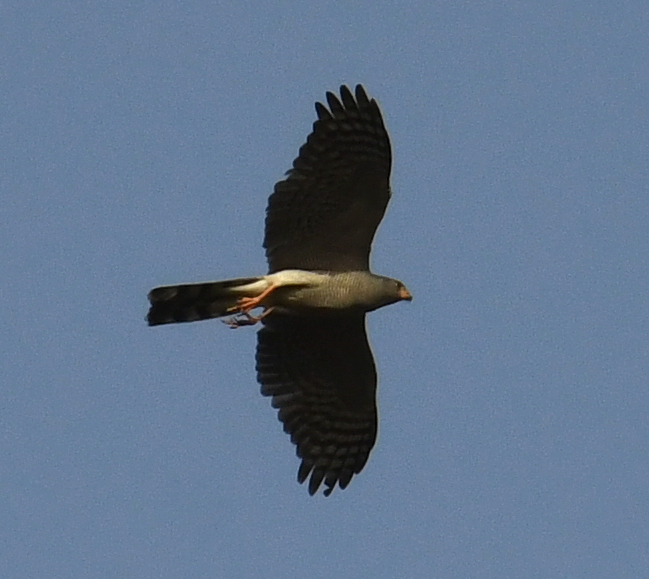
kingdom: Animalia
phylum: Chordata
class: Aves
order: Accipitriformes
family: Accipitridae
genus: Micronisus
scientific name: Micronisus gabar
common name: Gabar goshawk
